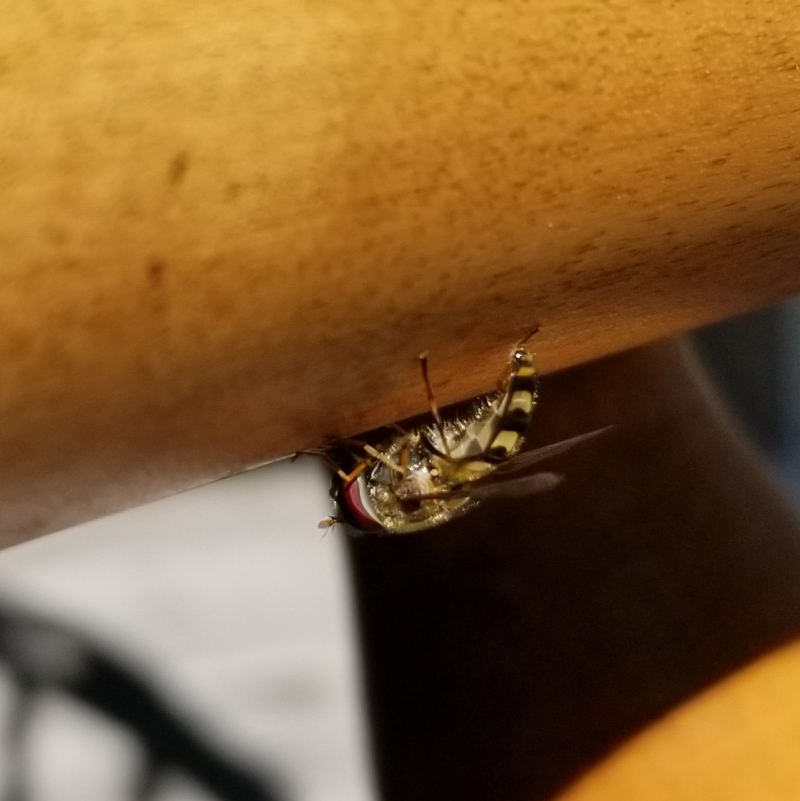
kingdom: Animalia
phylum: Arthropoda
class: Insecta
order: Diptera
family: Syrphidae
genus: Lapposyrphus
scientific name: Lapposyrphus lapponicus
